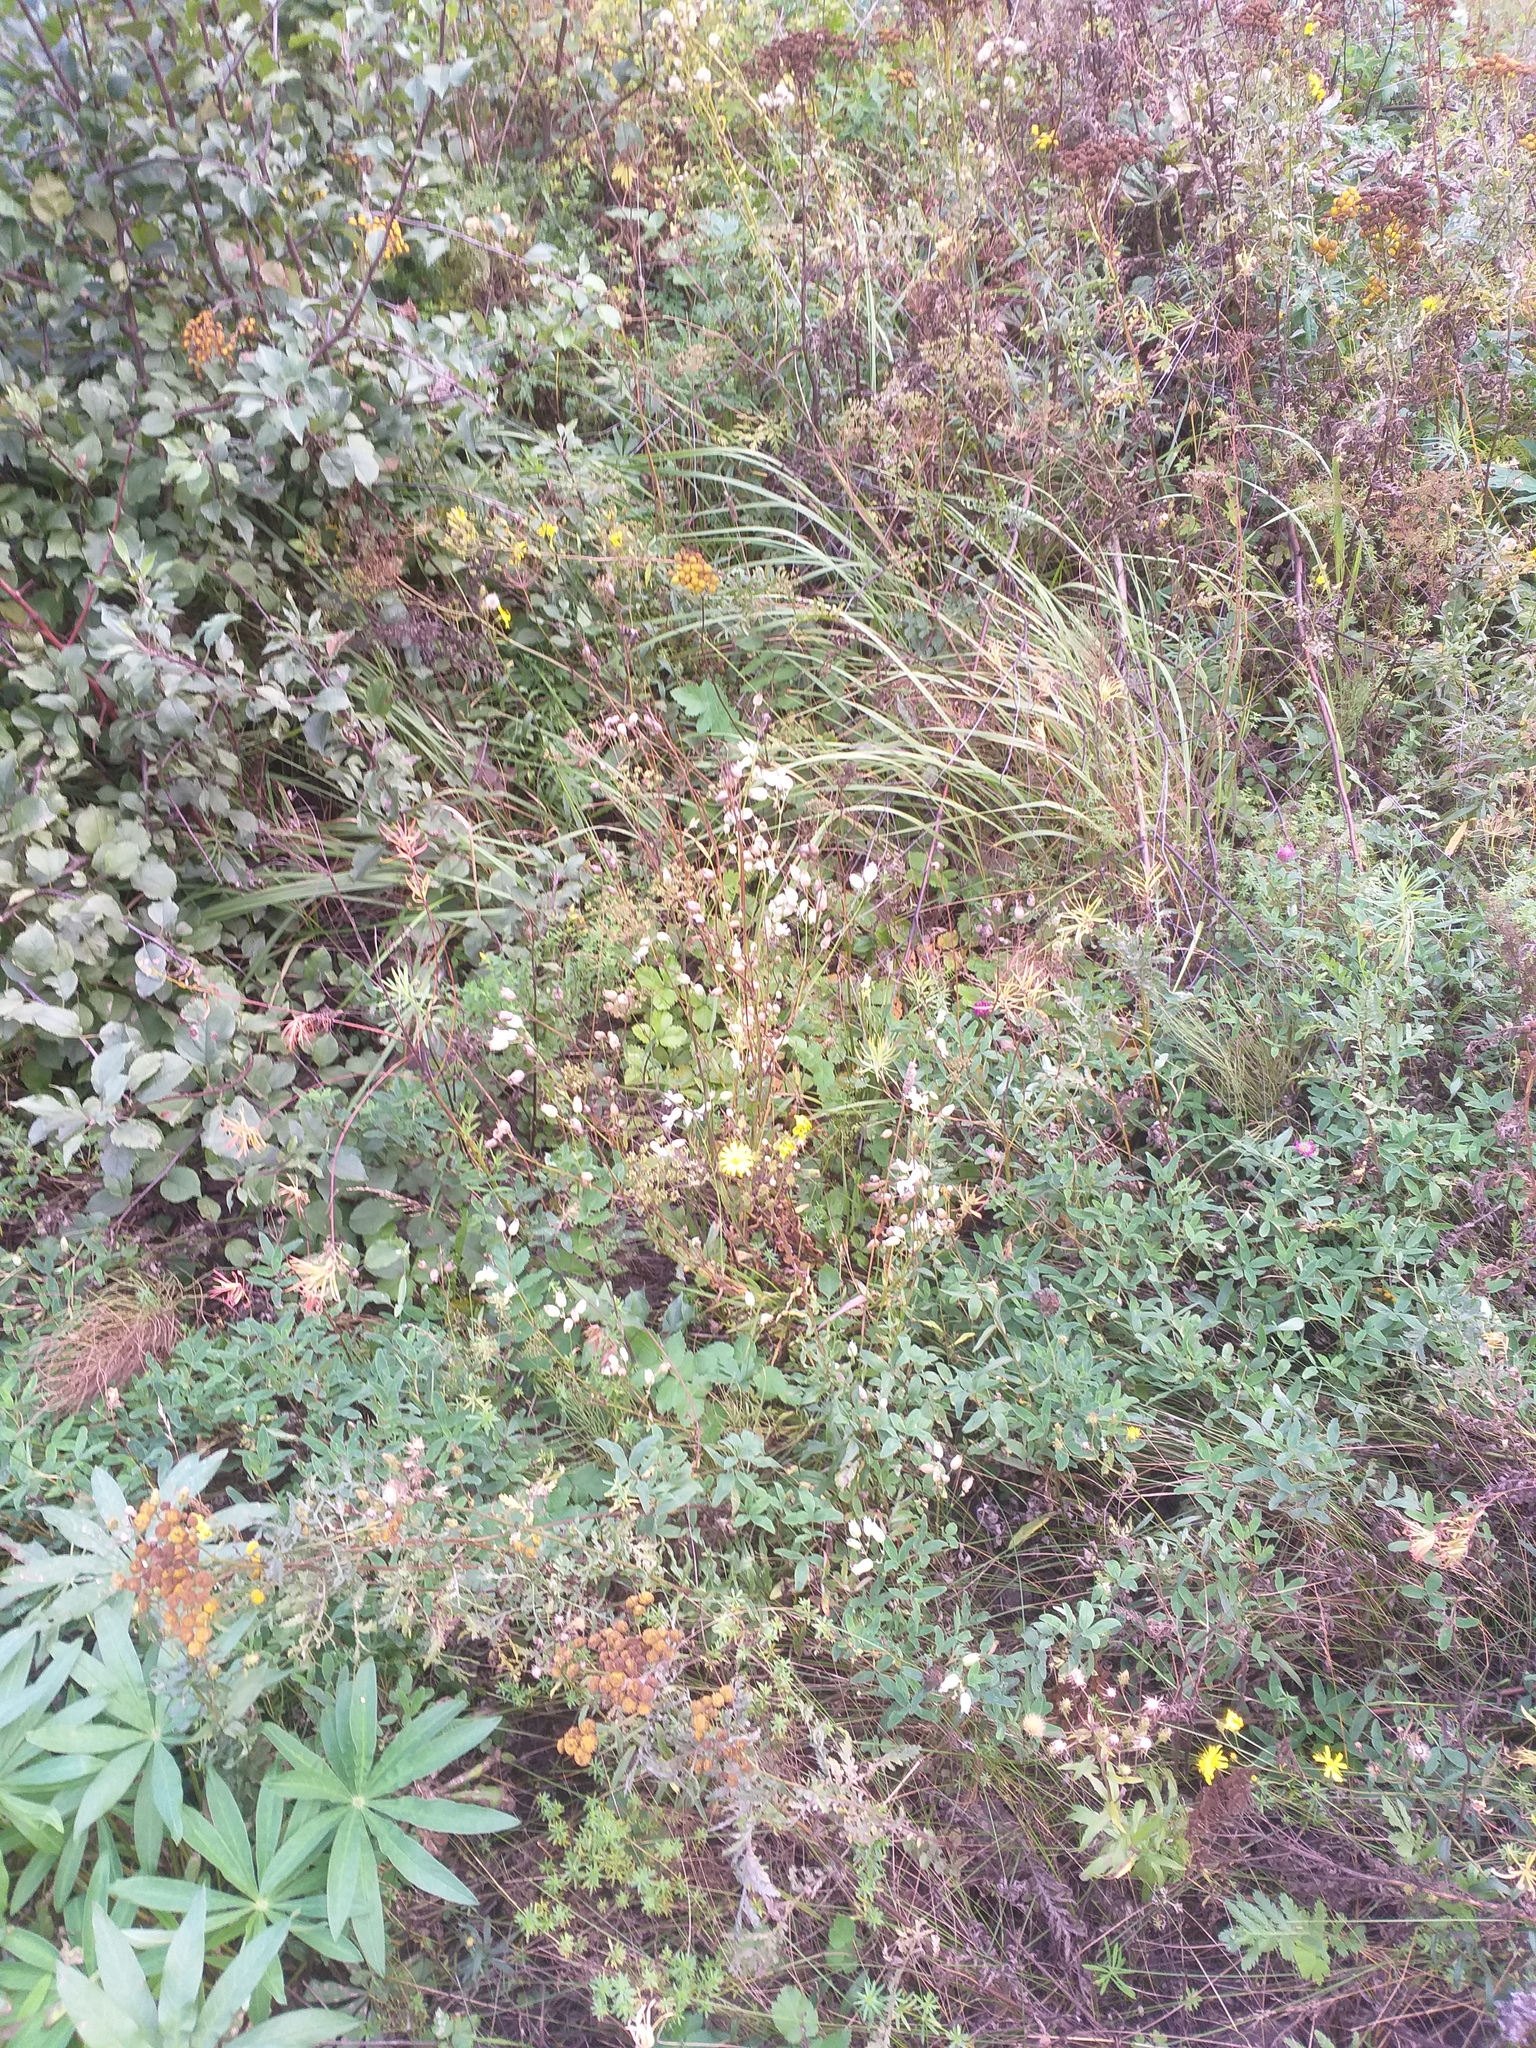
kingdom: Plantae
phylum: Tracheophyta
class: Magnoliopsida
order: Caryophyllales
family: Caryophyllaceae
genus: Silene
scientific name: Silene vulgaris
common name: Bladder campion
